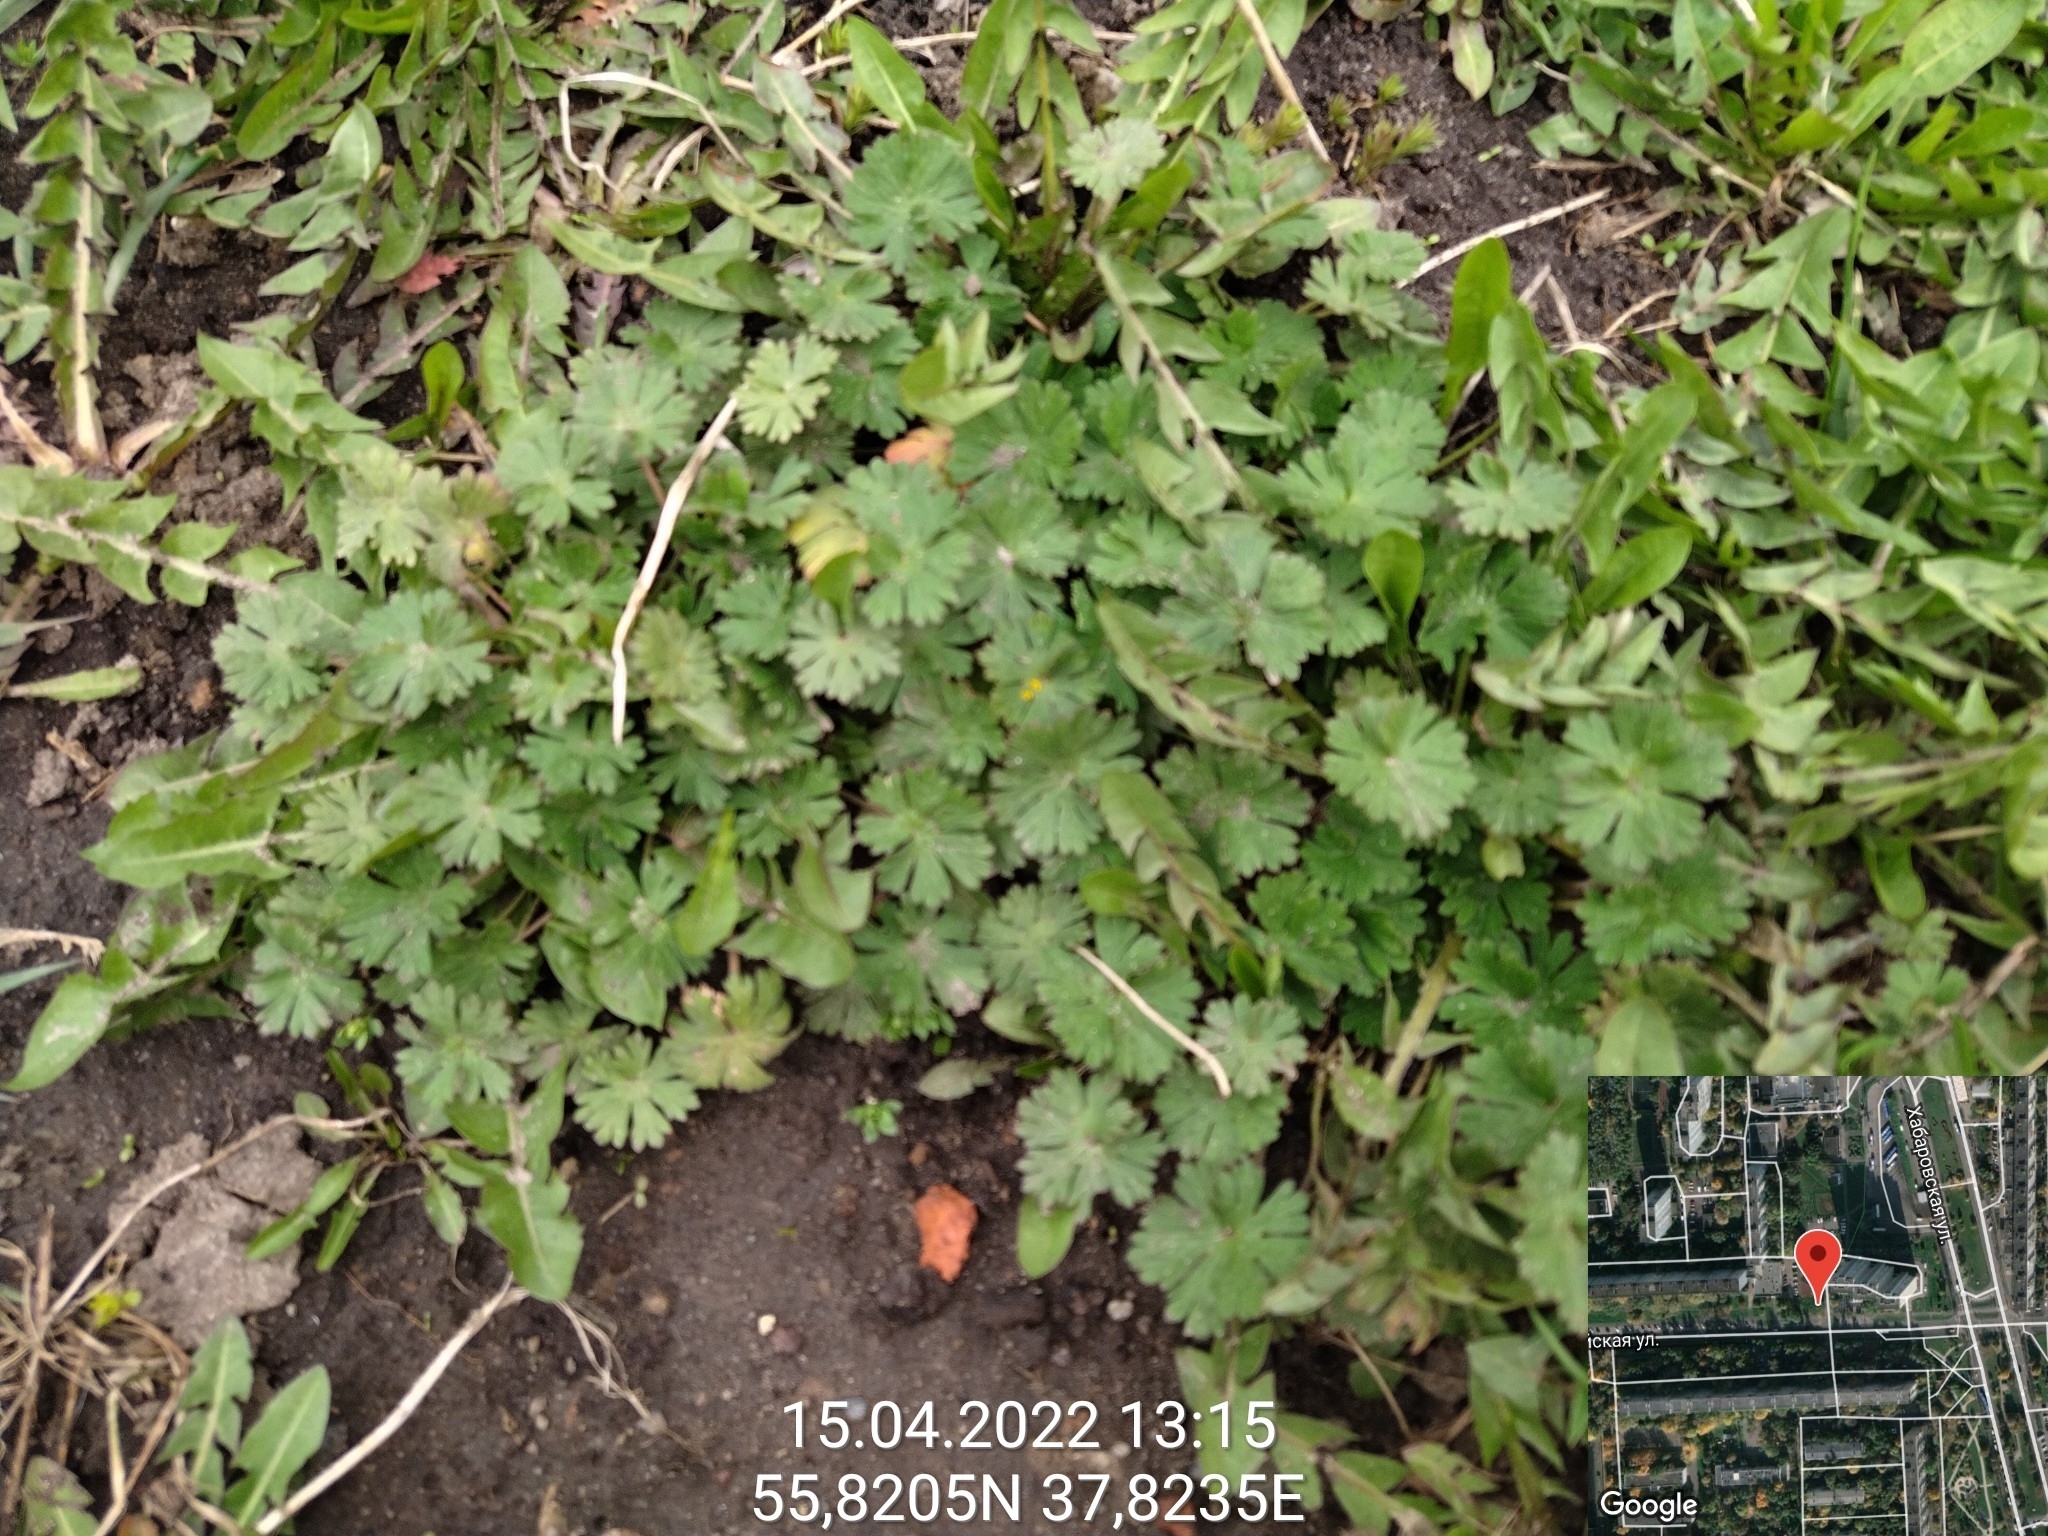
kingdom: Plantae
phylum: Tracheophyta
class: Magnoliopsida
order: Geraniales
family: Geraniaceae
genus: Geranium
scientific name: Geranium pusillum
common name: Small geranium
